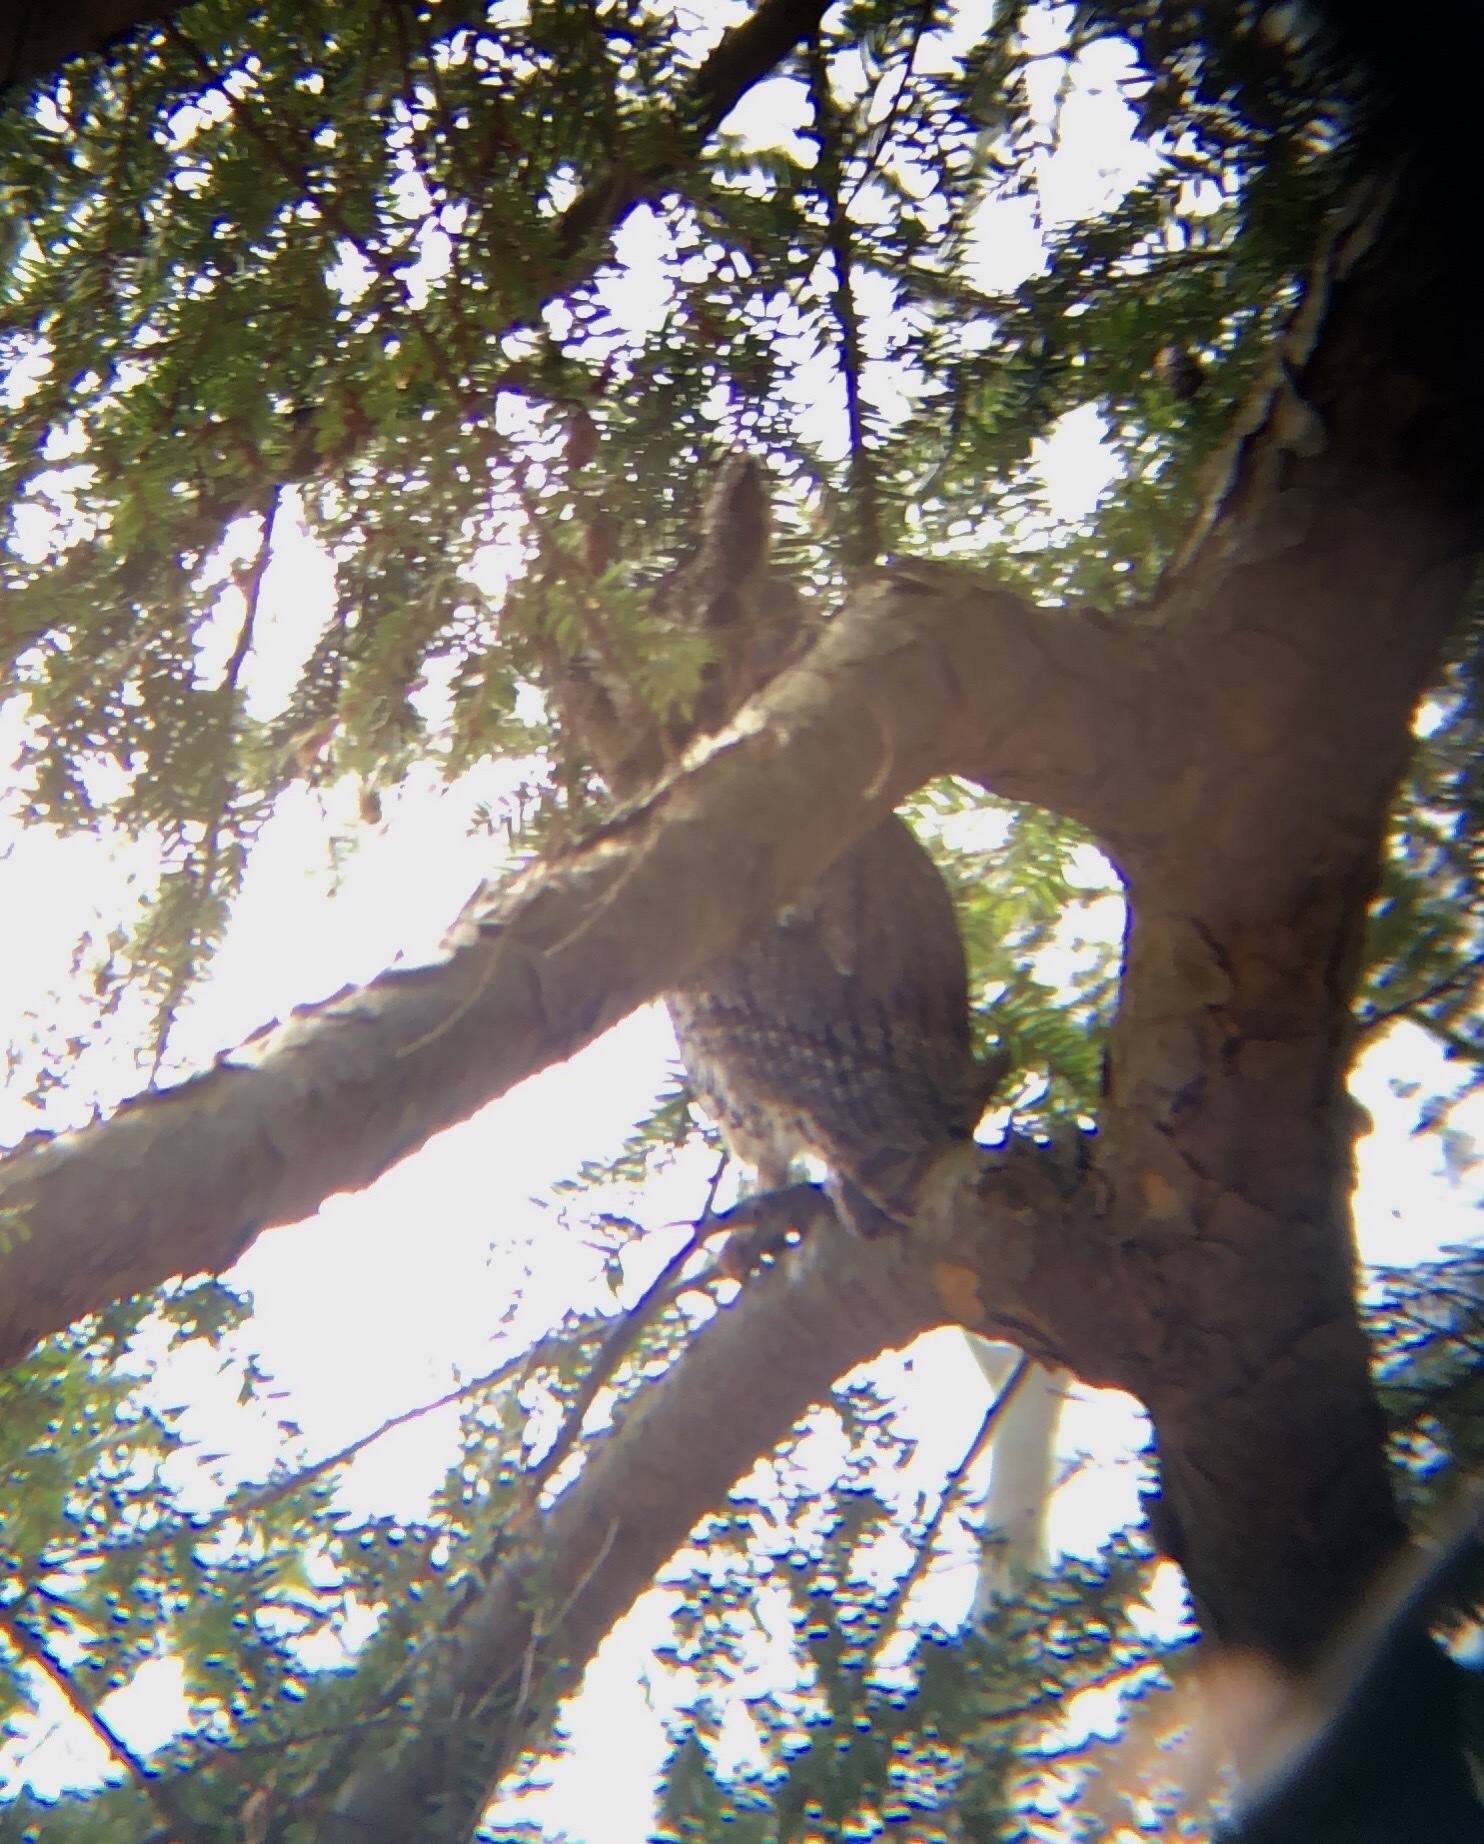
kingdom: Animalia
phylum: Chordata
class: Aves
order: Strigiformes
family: Strigidae
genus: Megascops
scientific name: Megascops asio
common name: Eastern screech-owl
